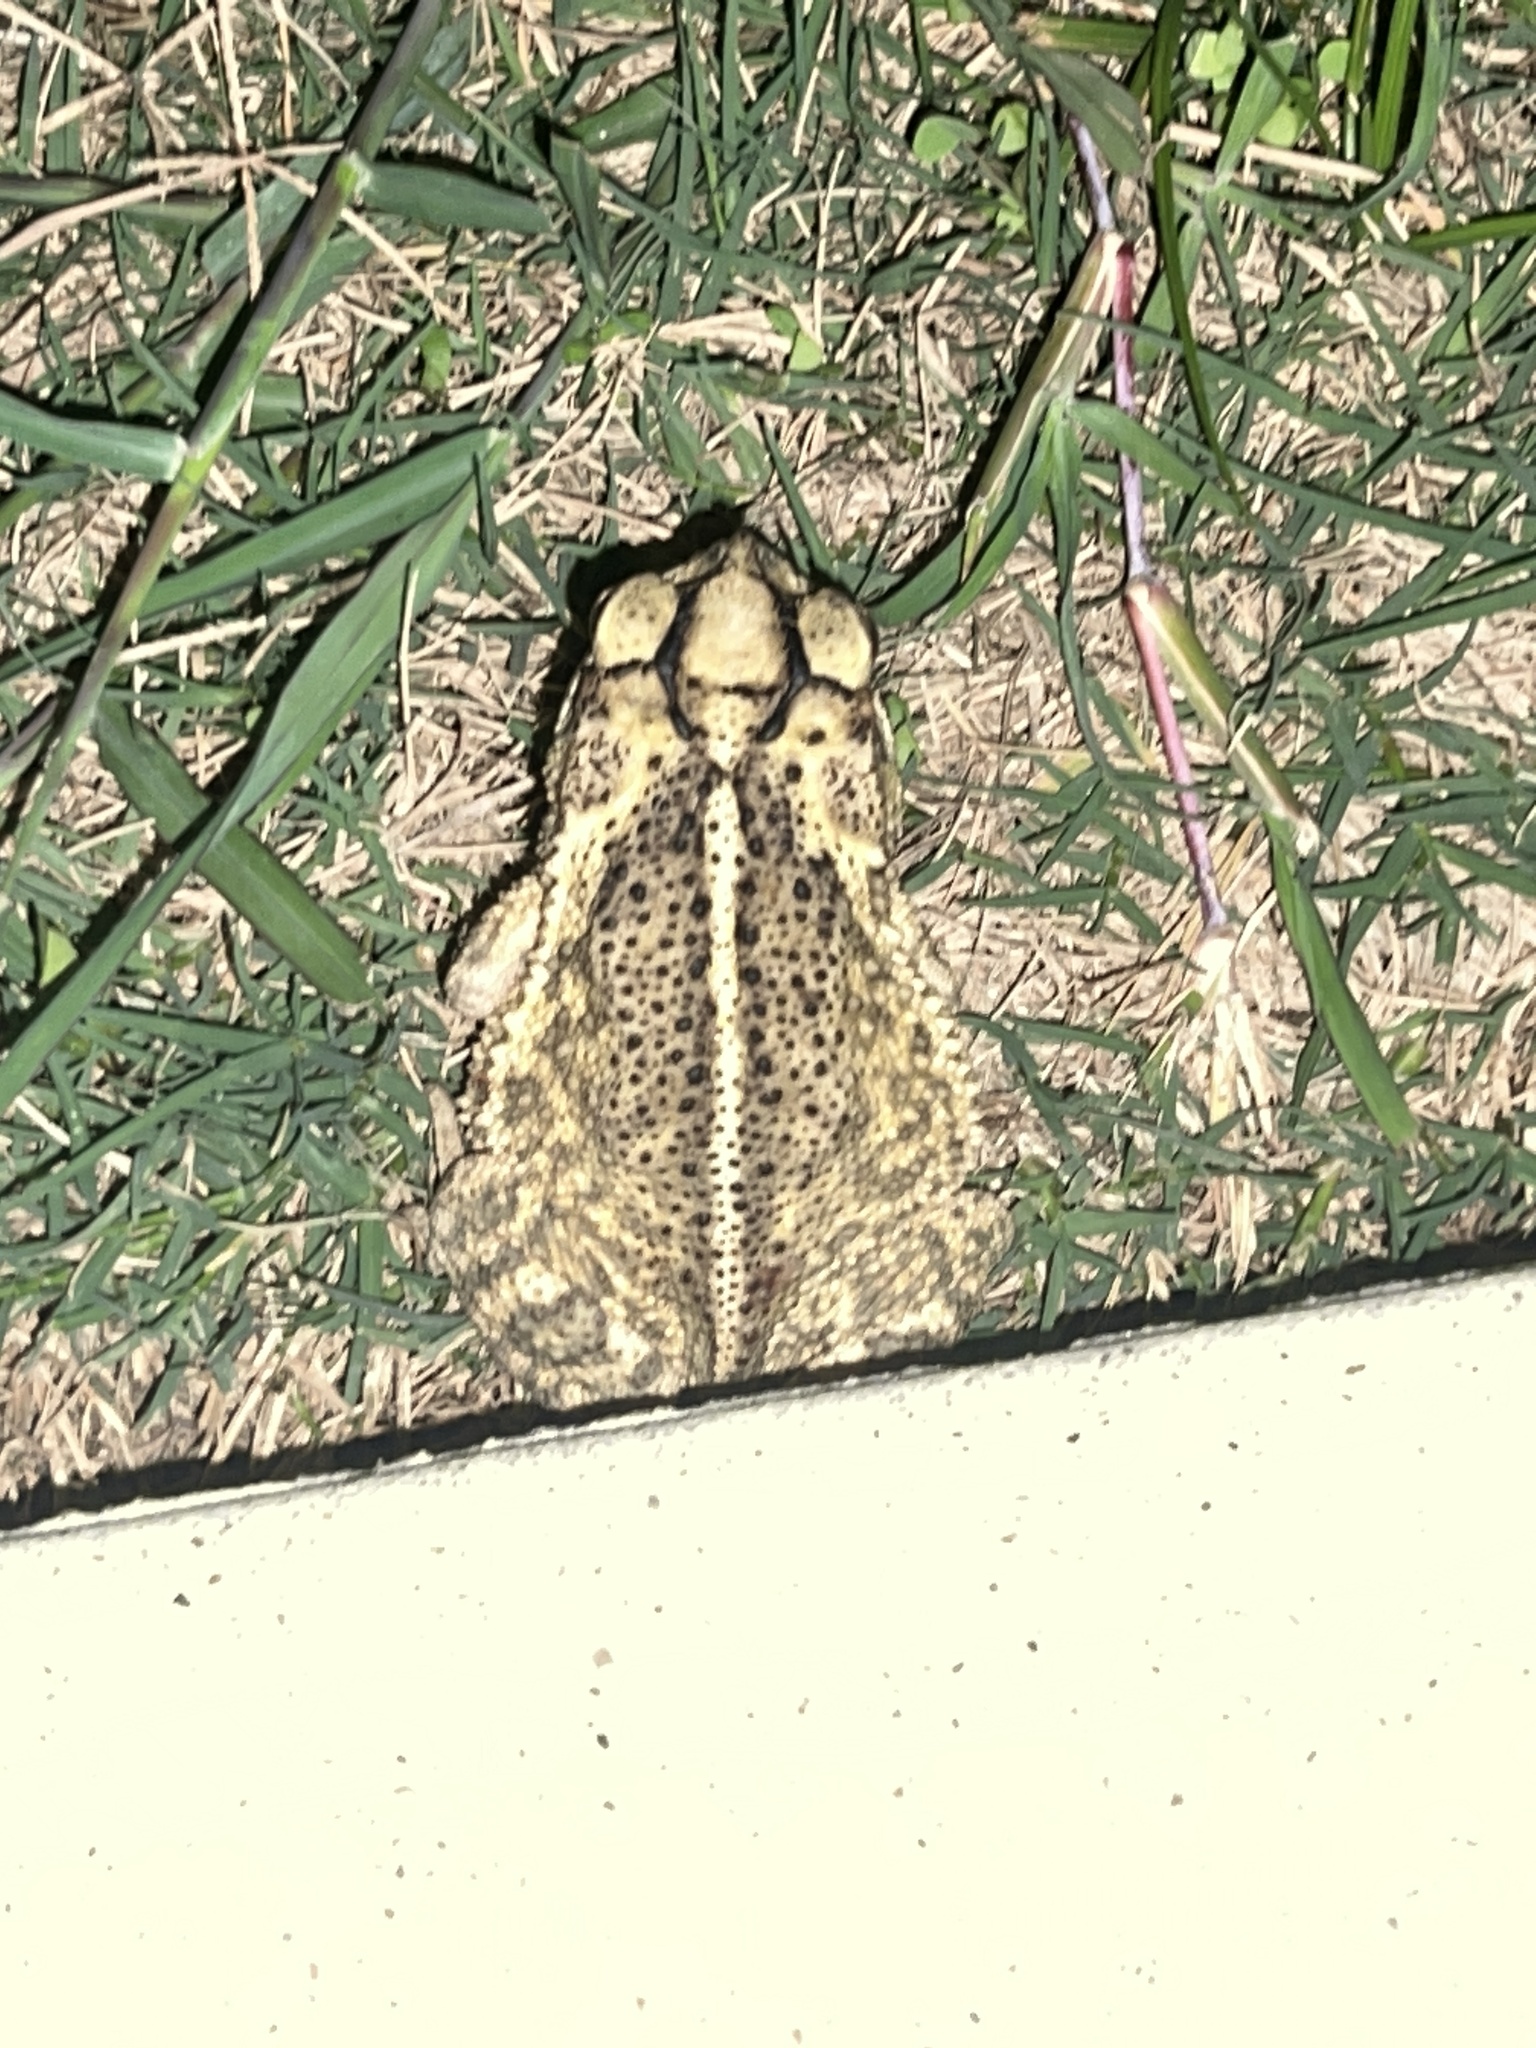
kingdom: Animalia
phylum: Chordata
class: Amphibia
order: Anura
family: Bufonidae
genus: Incilius
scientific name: Incilius nebulifer
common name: Gulf coast toad
